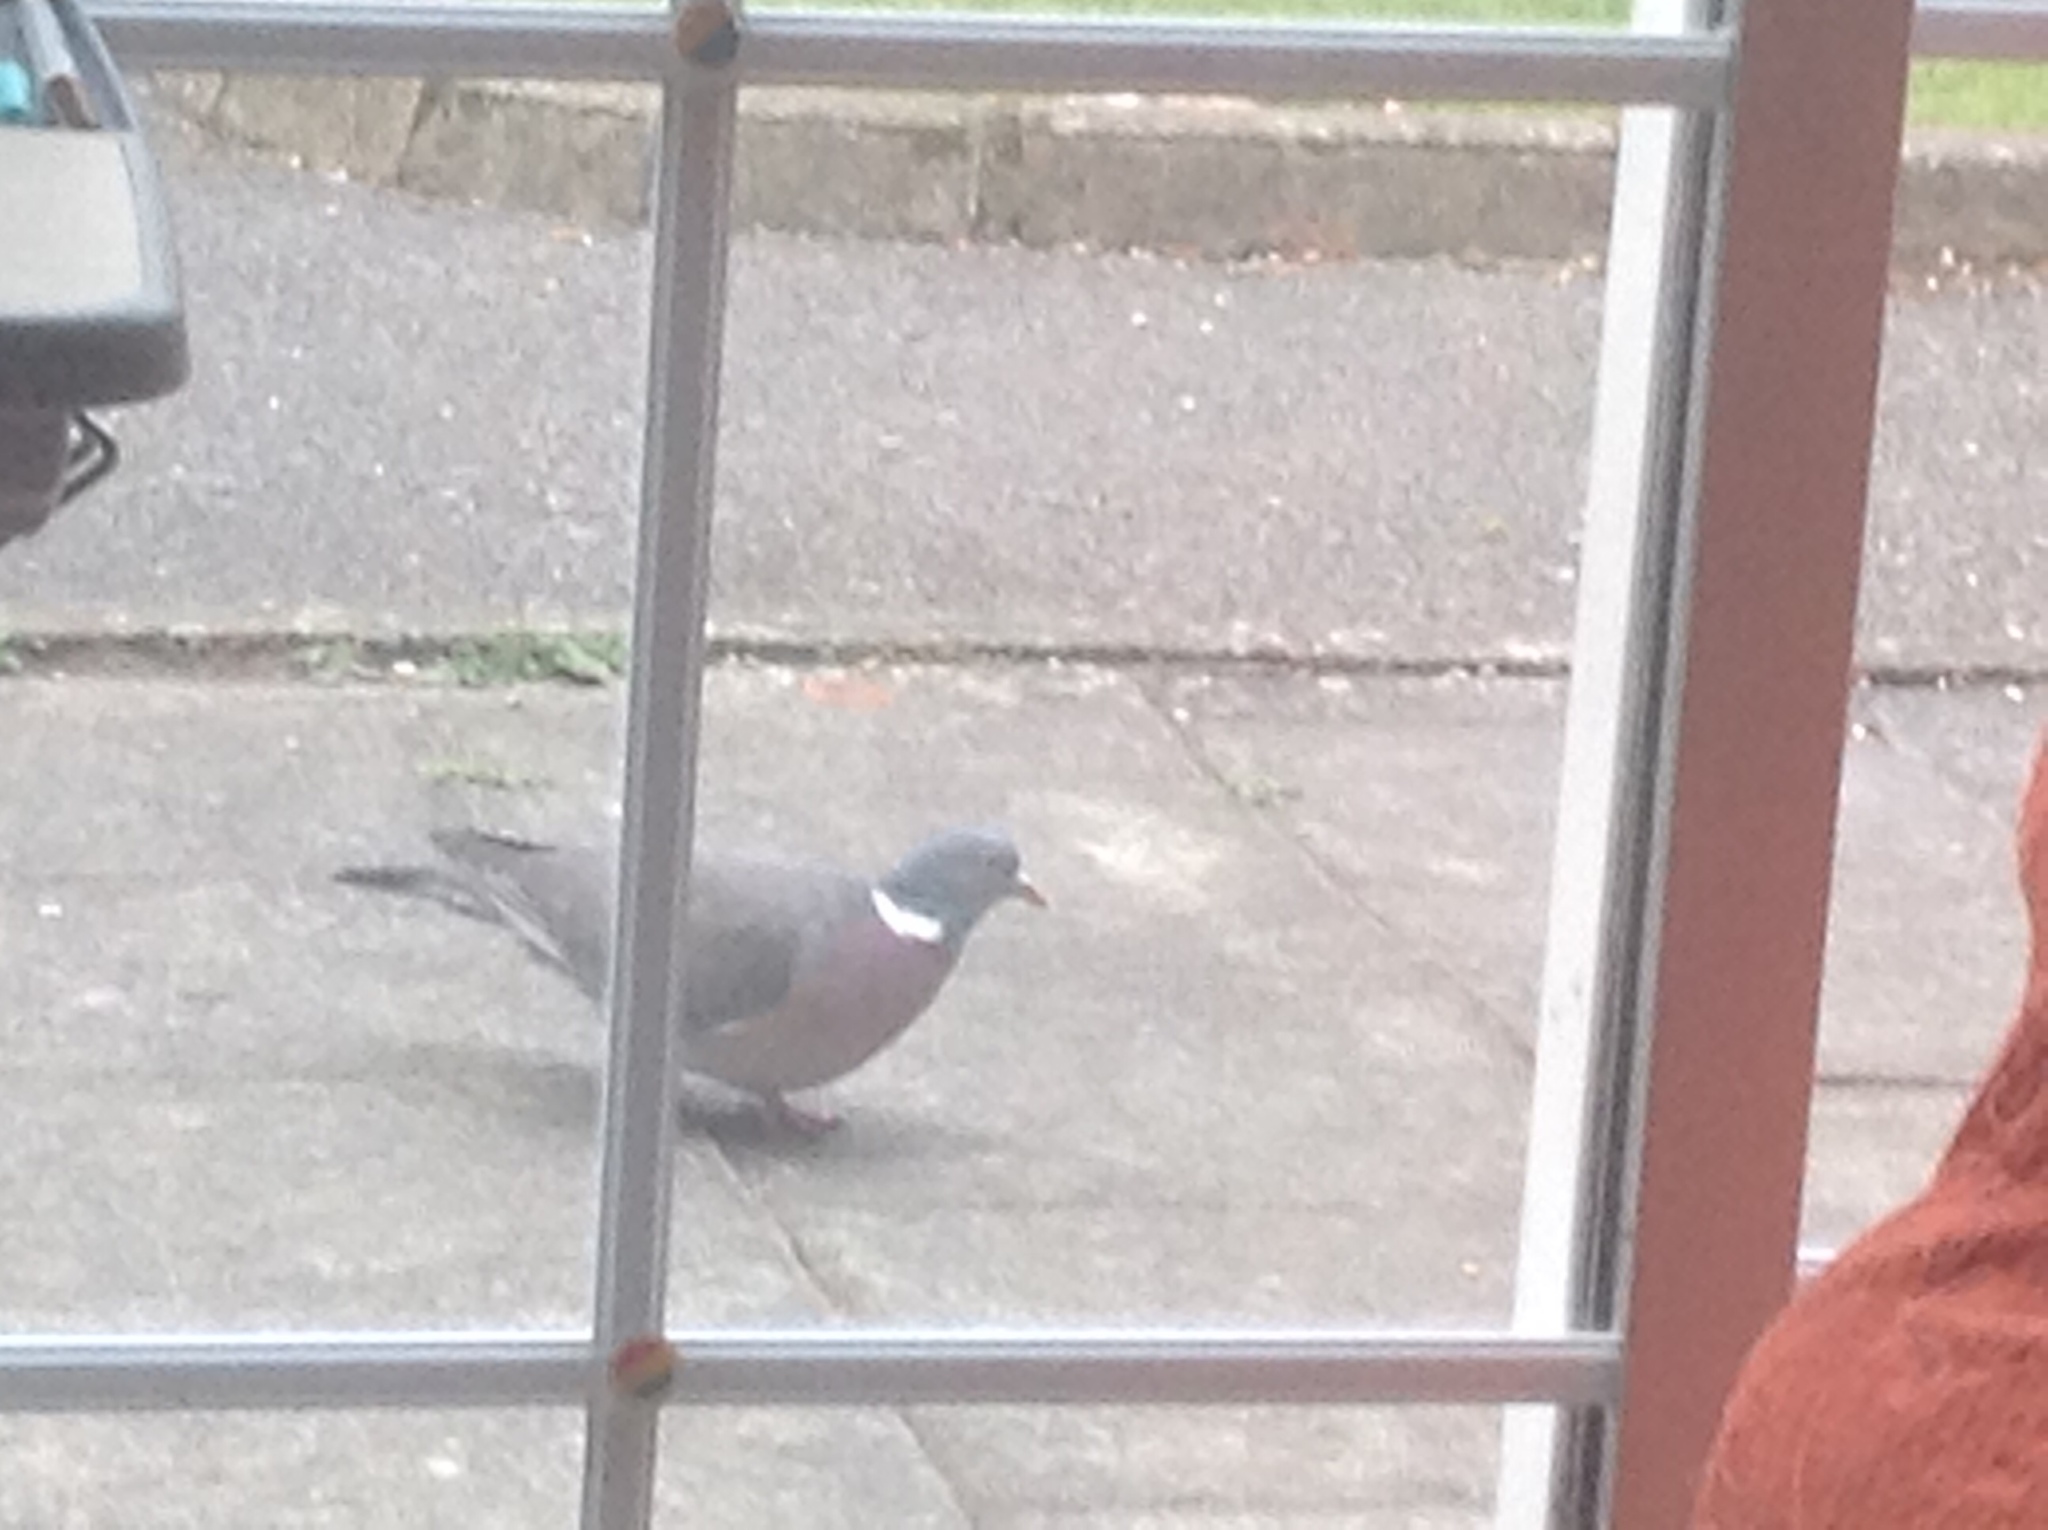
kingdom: Animalia
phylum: Chordata
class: Aves
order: Columbiformes
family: Columbidae
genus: Columba
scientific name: Columba palumbus
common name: Common wood pigeon
